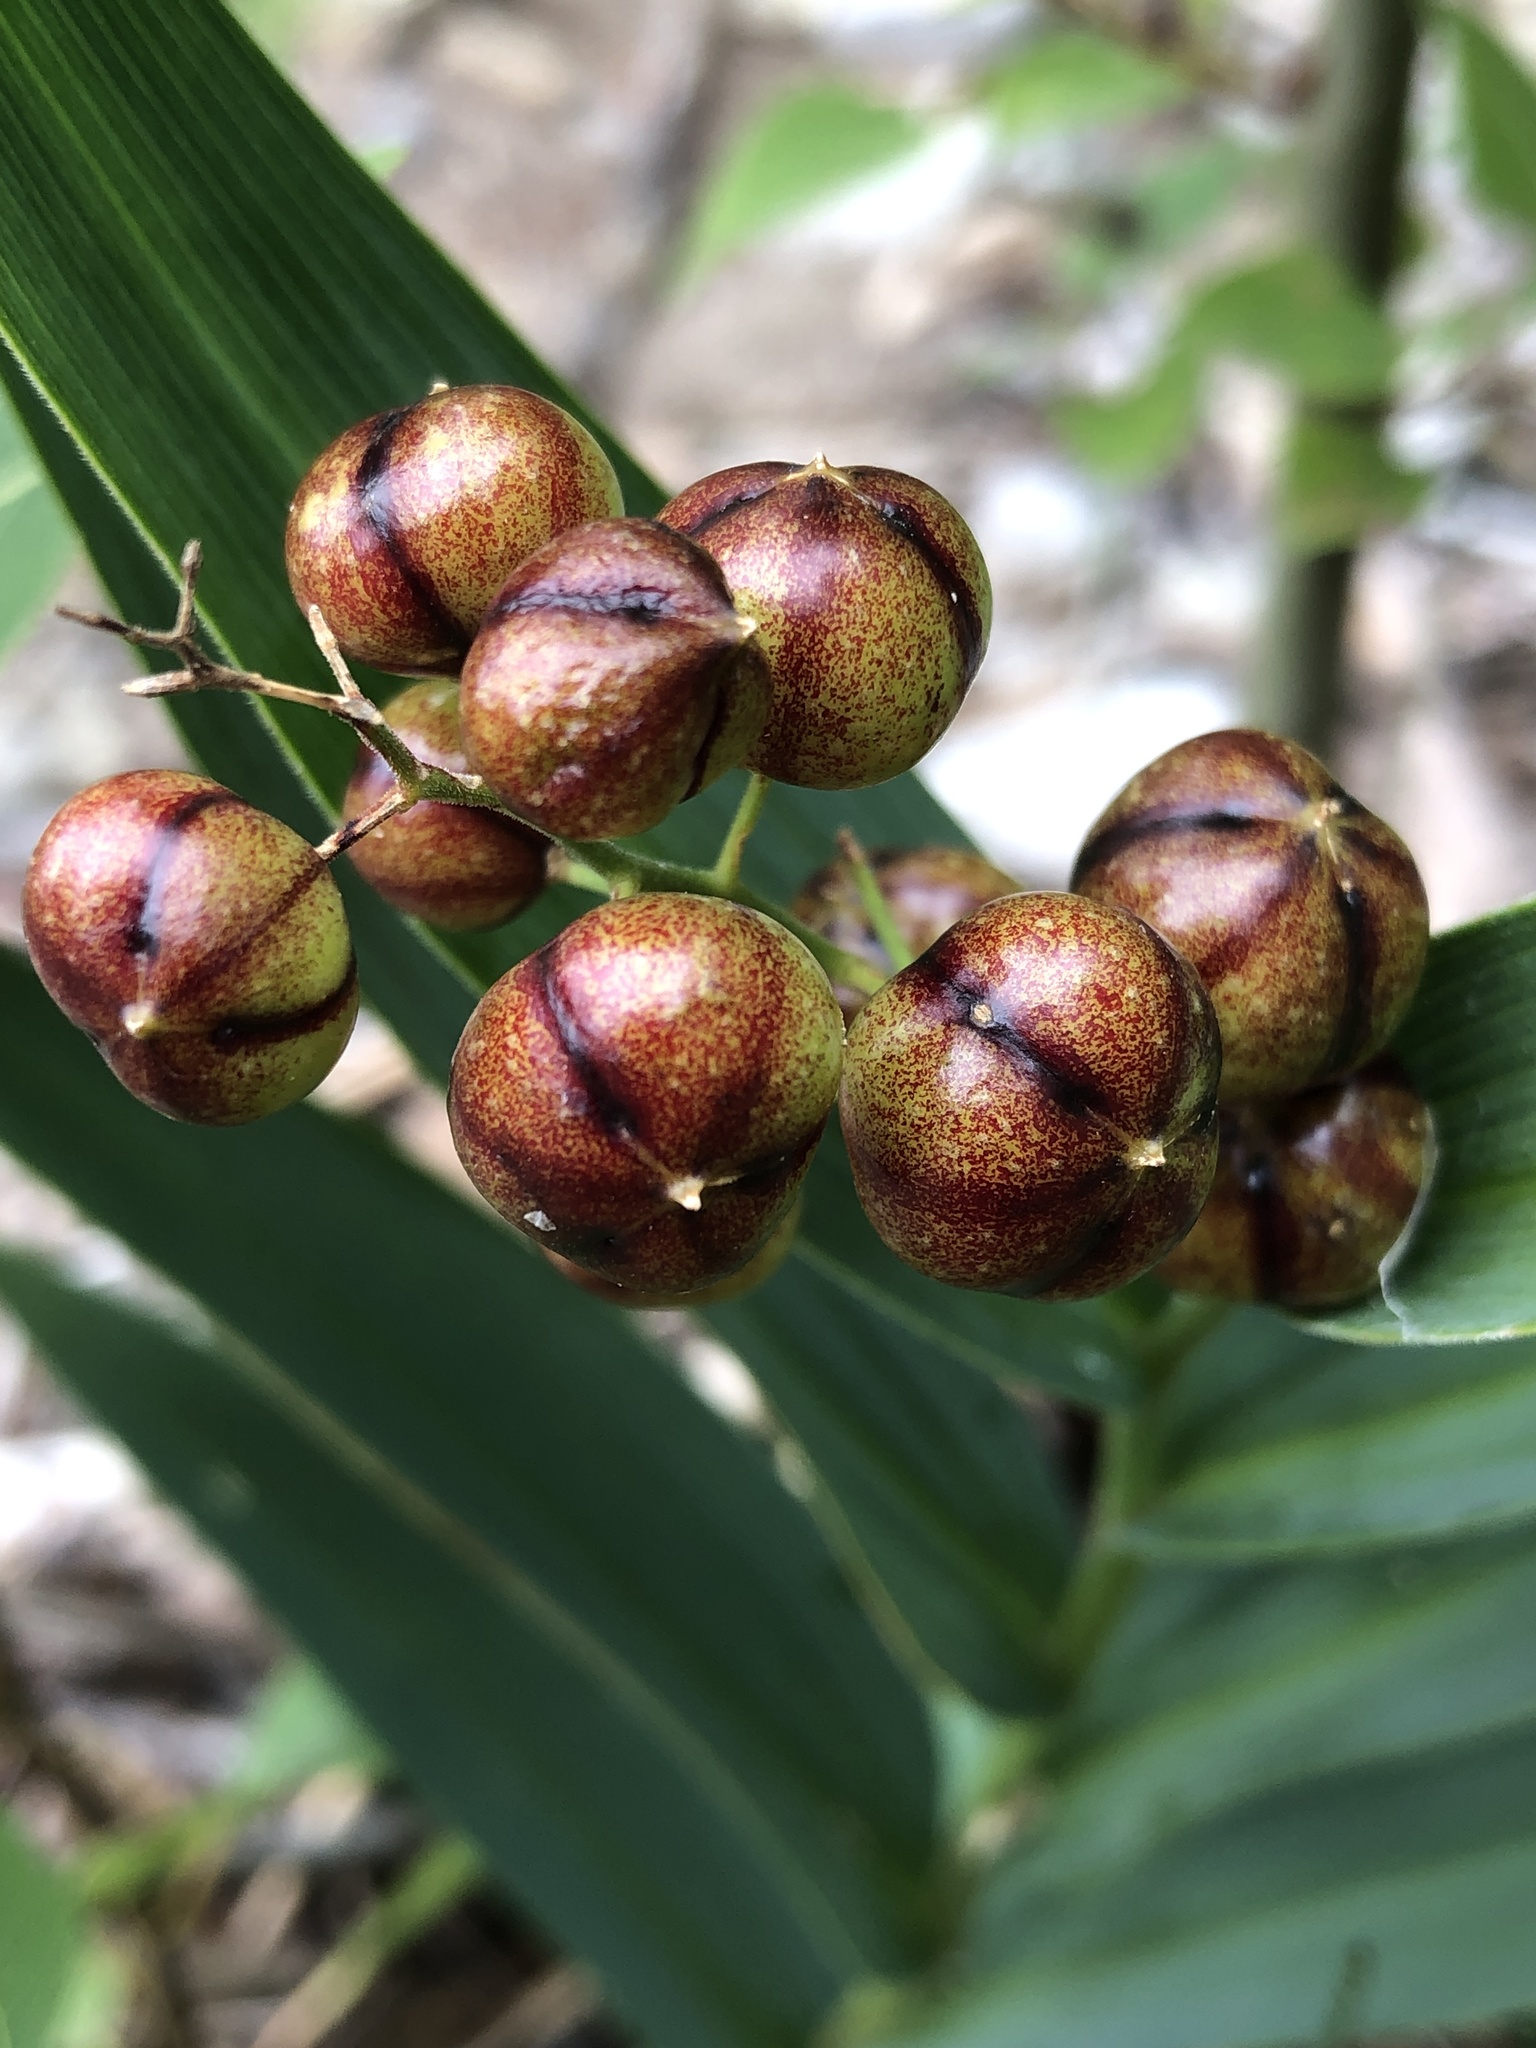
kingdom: Plantae
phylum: Tracheophyta
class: Liliopsida
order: Asparagales
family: Asparagaceae
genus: Maianthemum
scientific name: Maianthemum stellatum
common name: Little false solomon's seal
